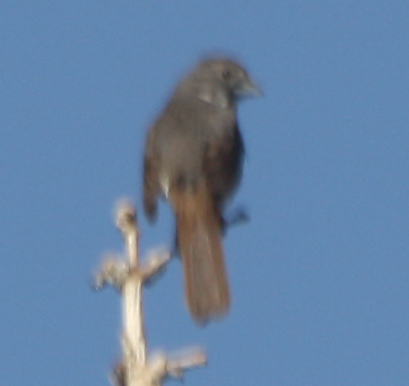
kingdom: Animalia
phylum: Chordata
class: Aves
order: Passeriformes
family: Passerellidae
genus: Passerella
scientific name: Passerella iliaca
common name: Fox sparrow
